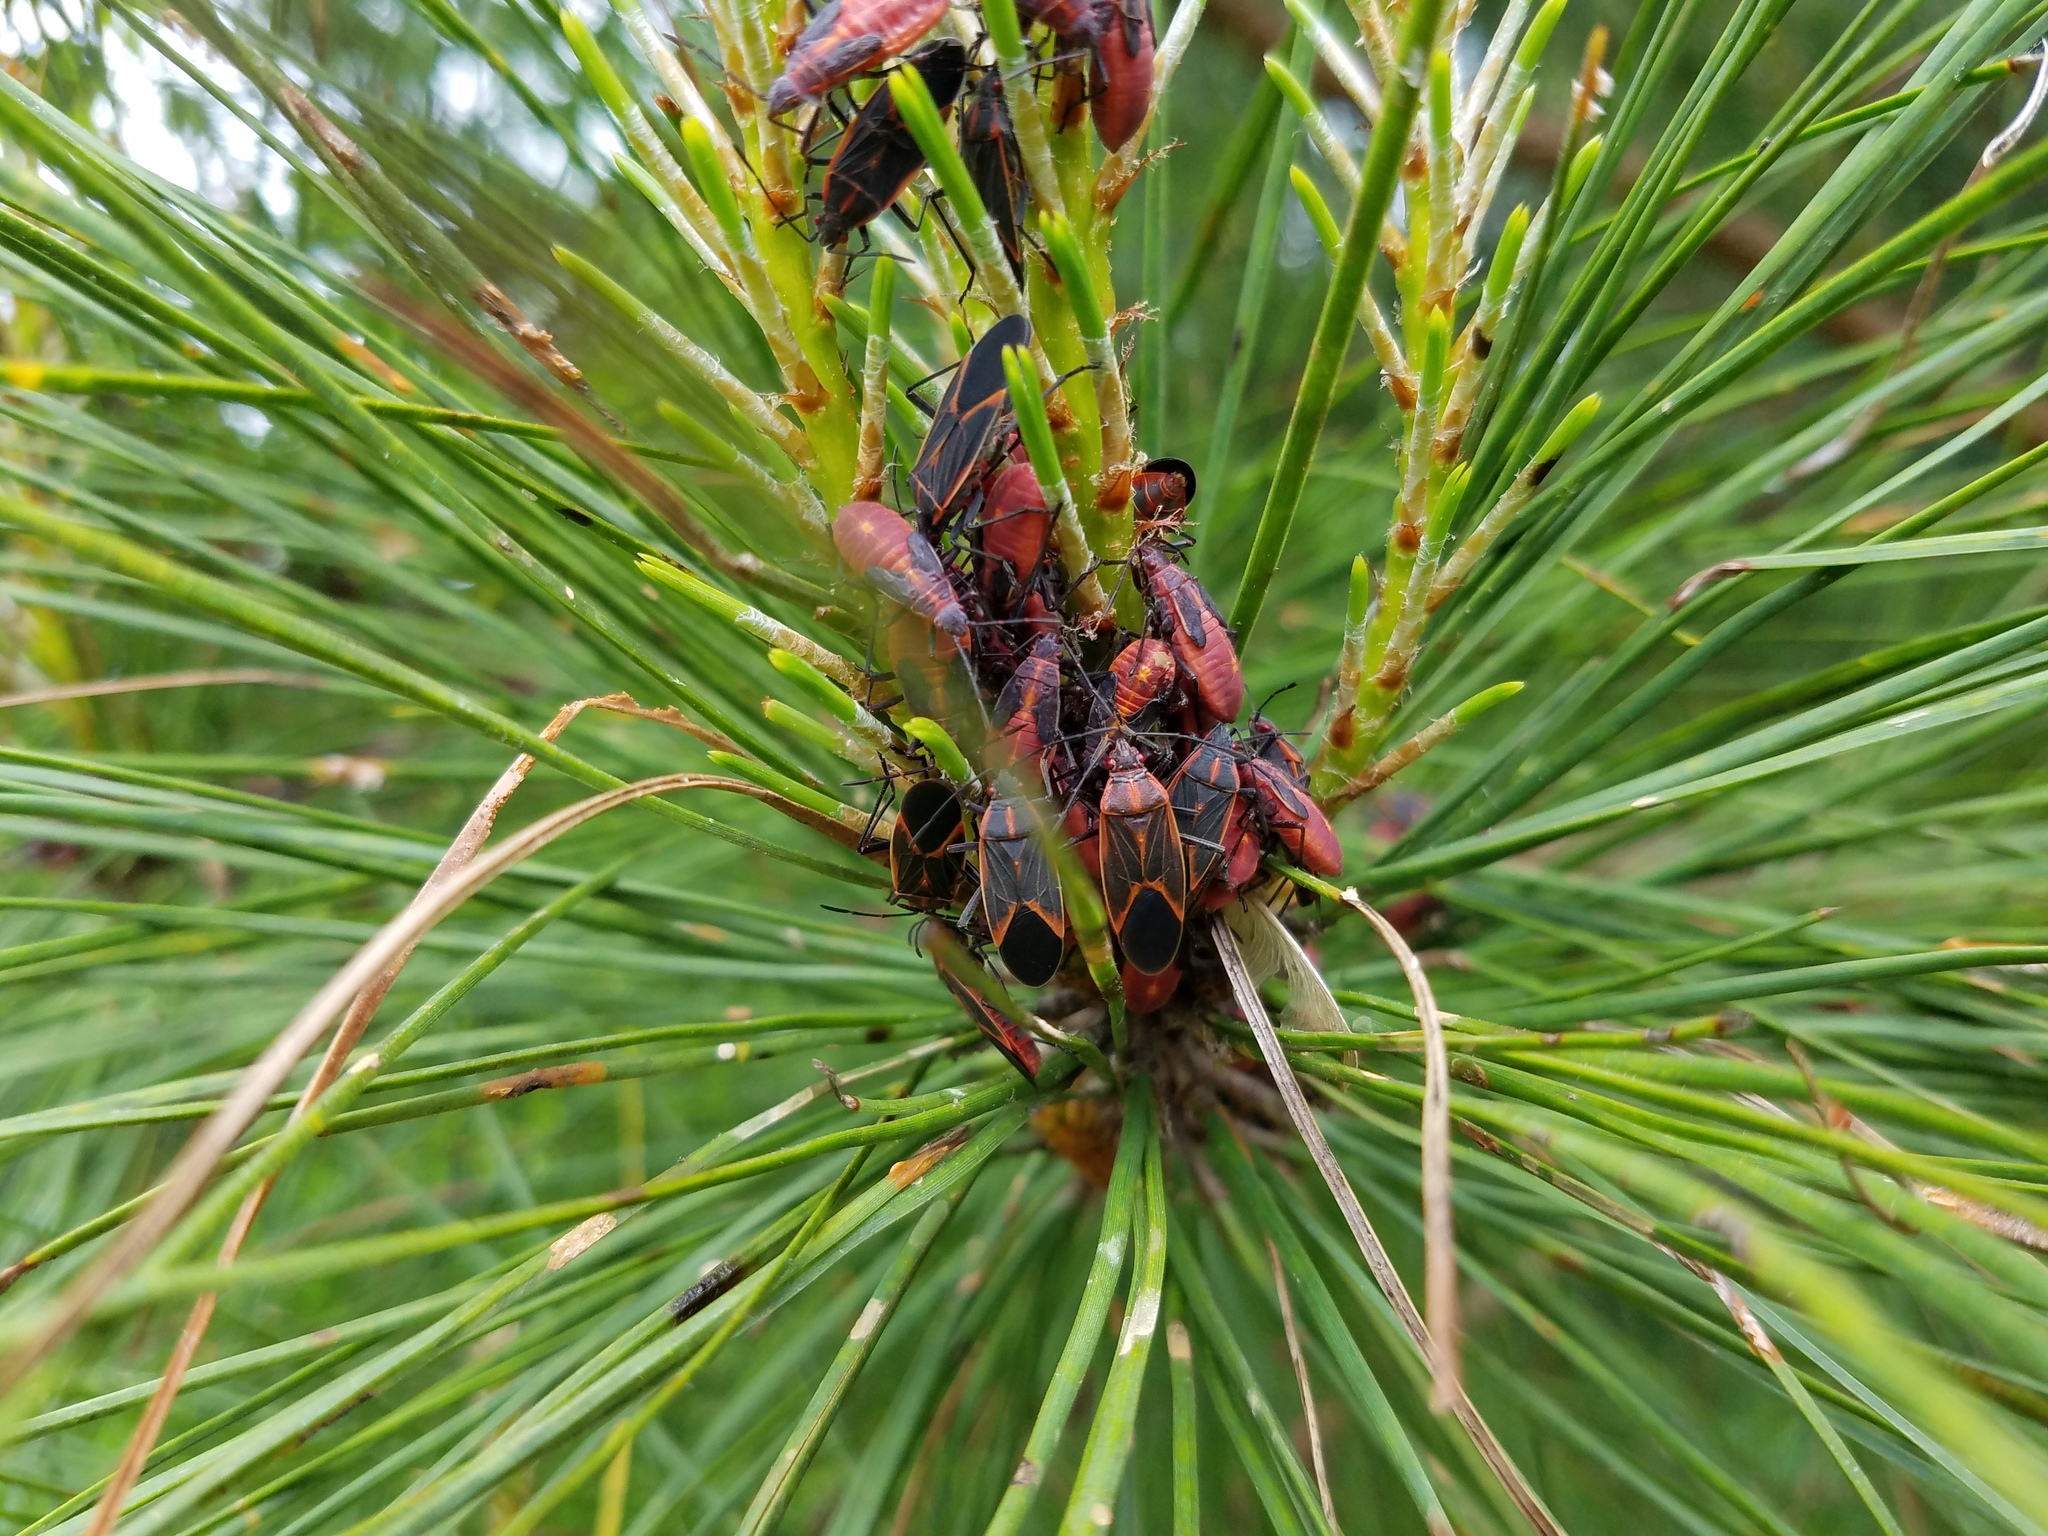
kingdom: Animalia
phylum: Arthropoda
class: Insecta
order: Hemiptera
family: Rhopalidae
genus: Boisea
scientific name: Boisea trivittata
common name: Boxelder bug
